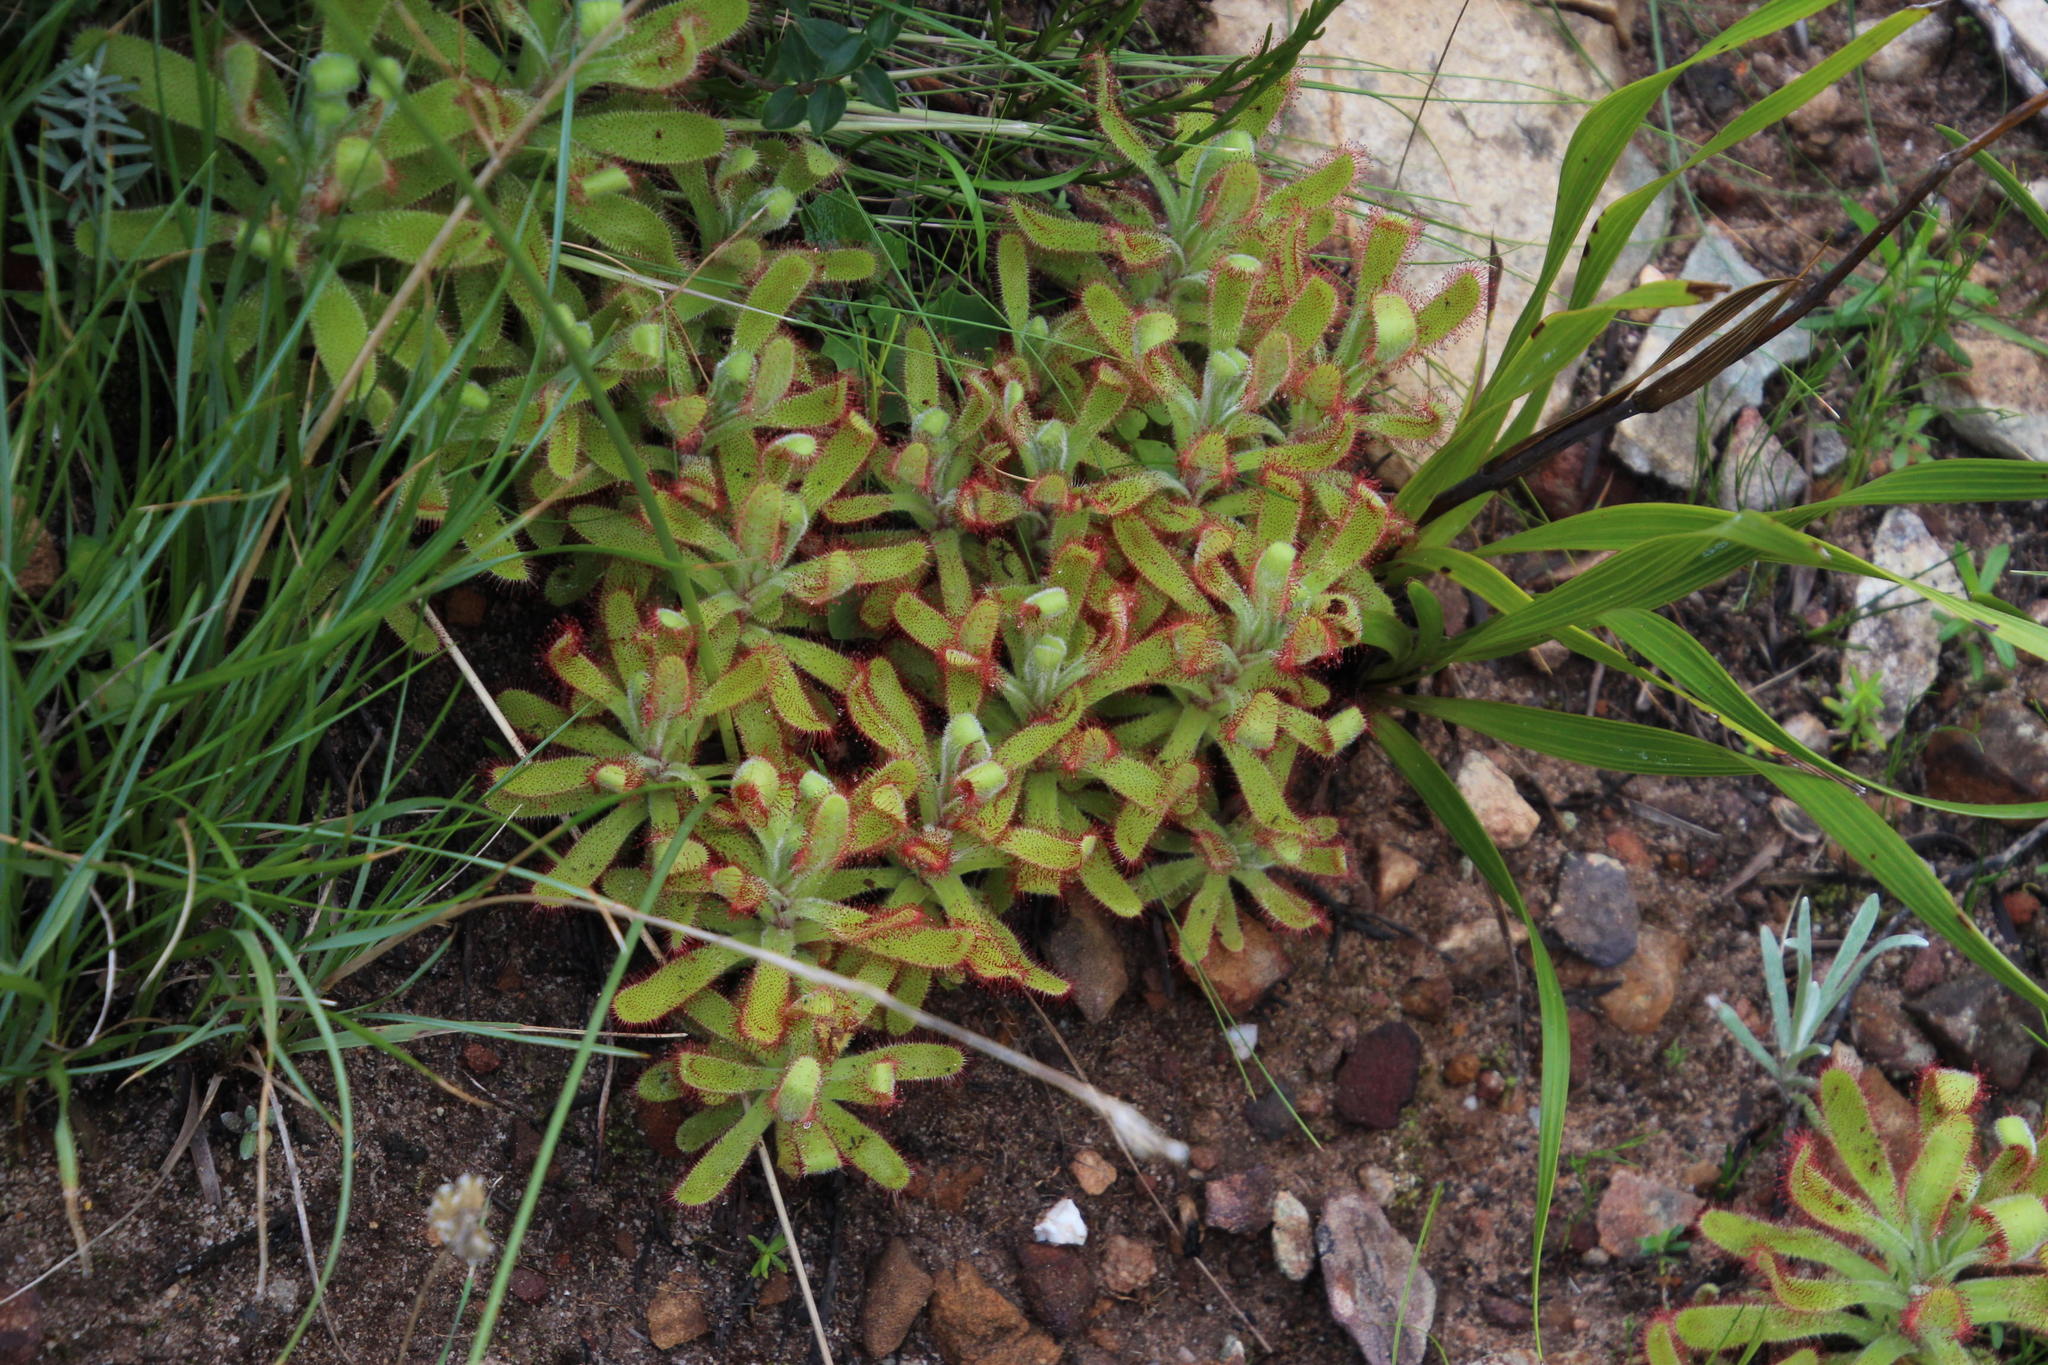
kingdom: Plantae
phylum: Tracheophyta
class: Magnoliopsida
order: Caryophyllales
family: Droseraceae
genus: Drosera
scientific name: Drosera hilaris
